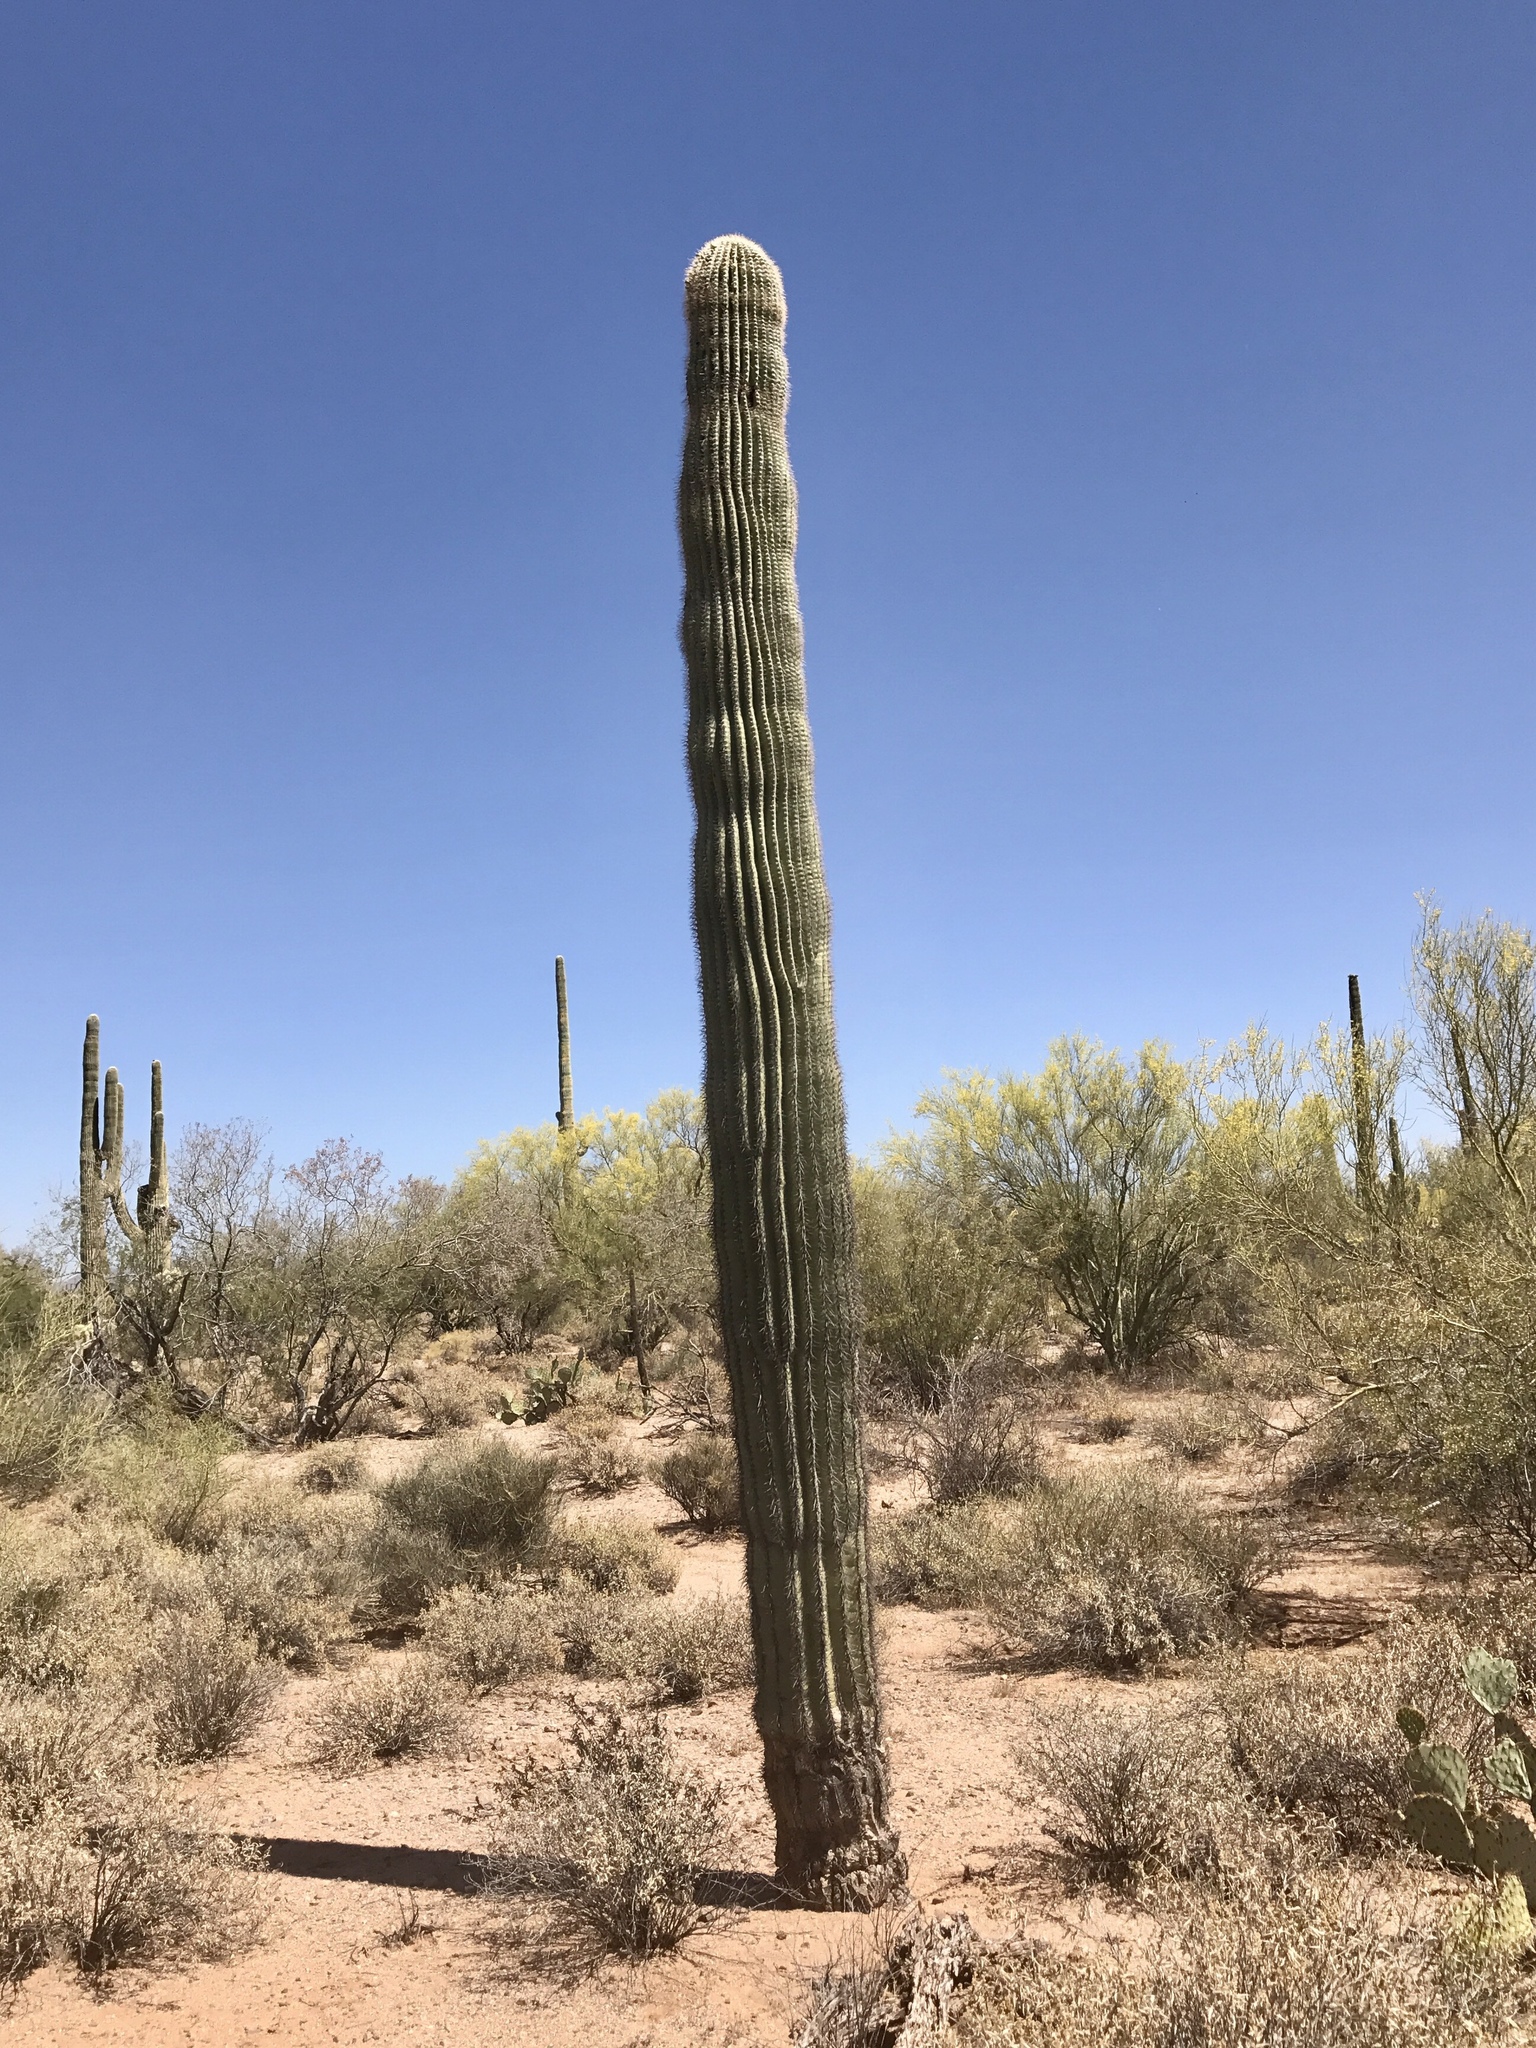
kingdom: Plantae
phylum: Tracheophyta
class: Magnoliopsida
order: Caryophyllales
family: Cactaceae
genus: Carnegiea
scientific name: Carnegiea gigantea
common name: Saguaro
